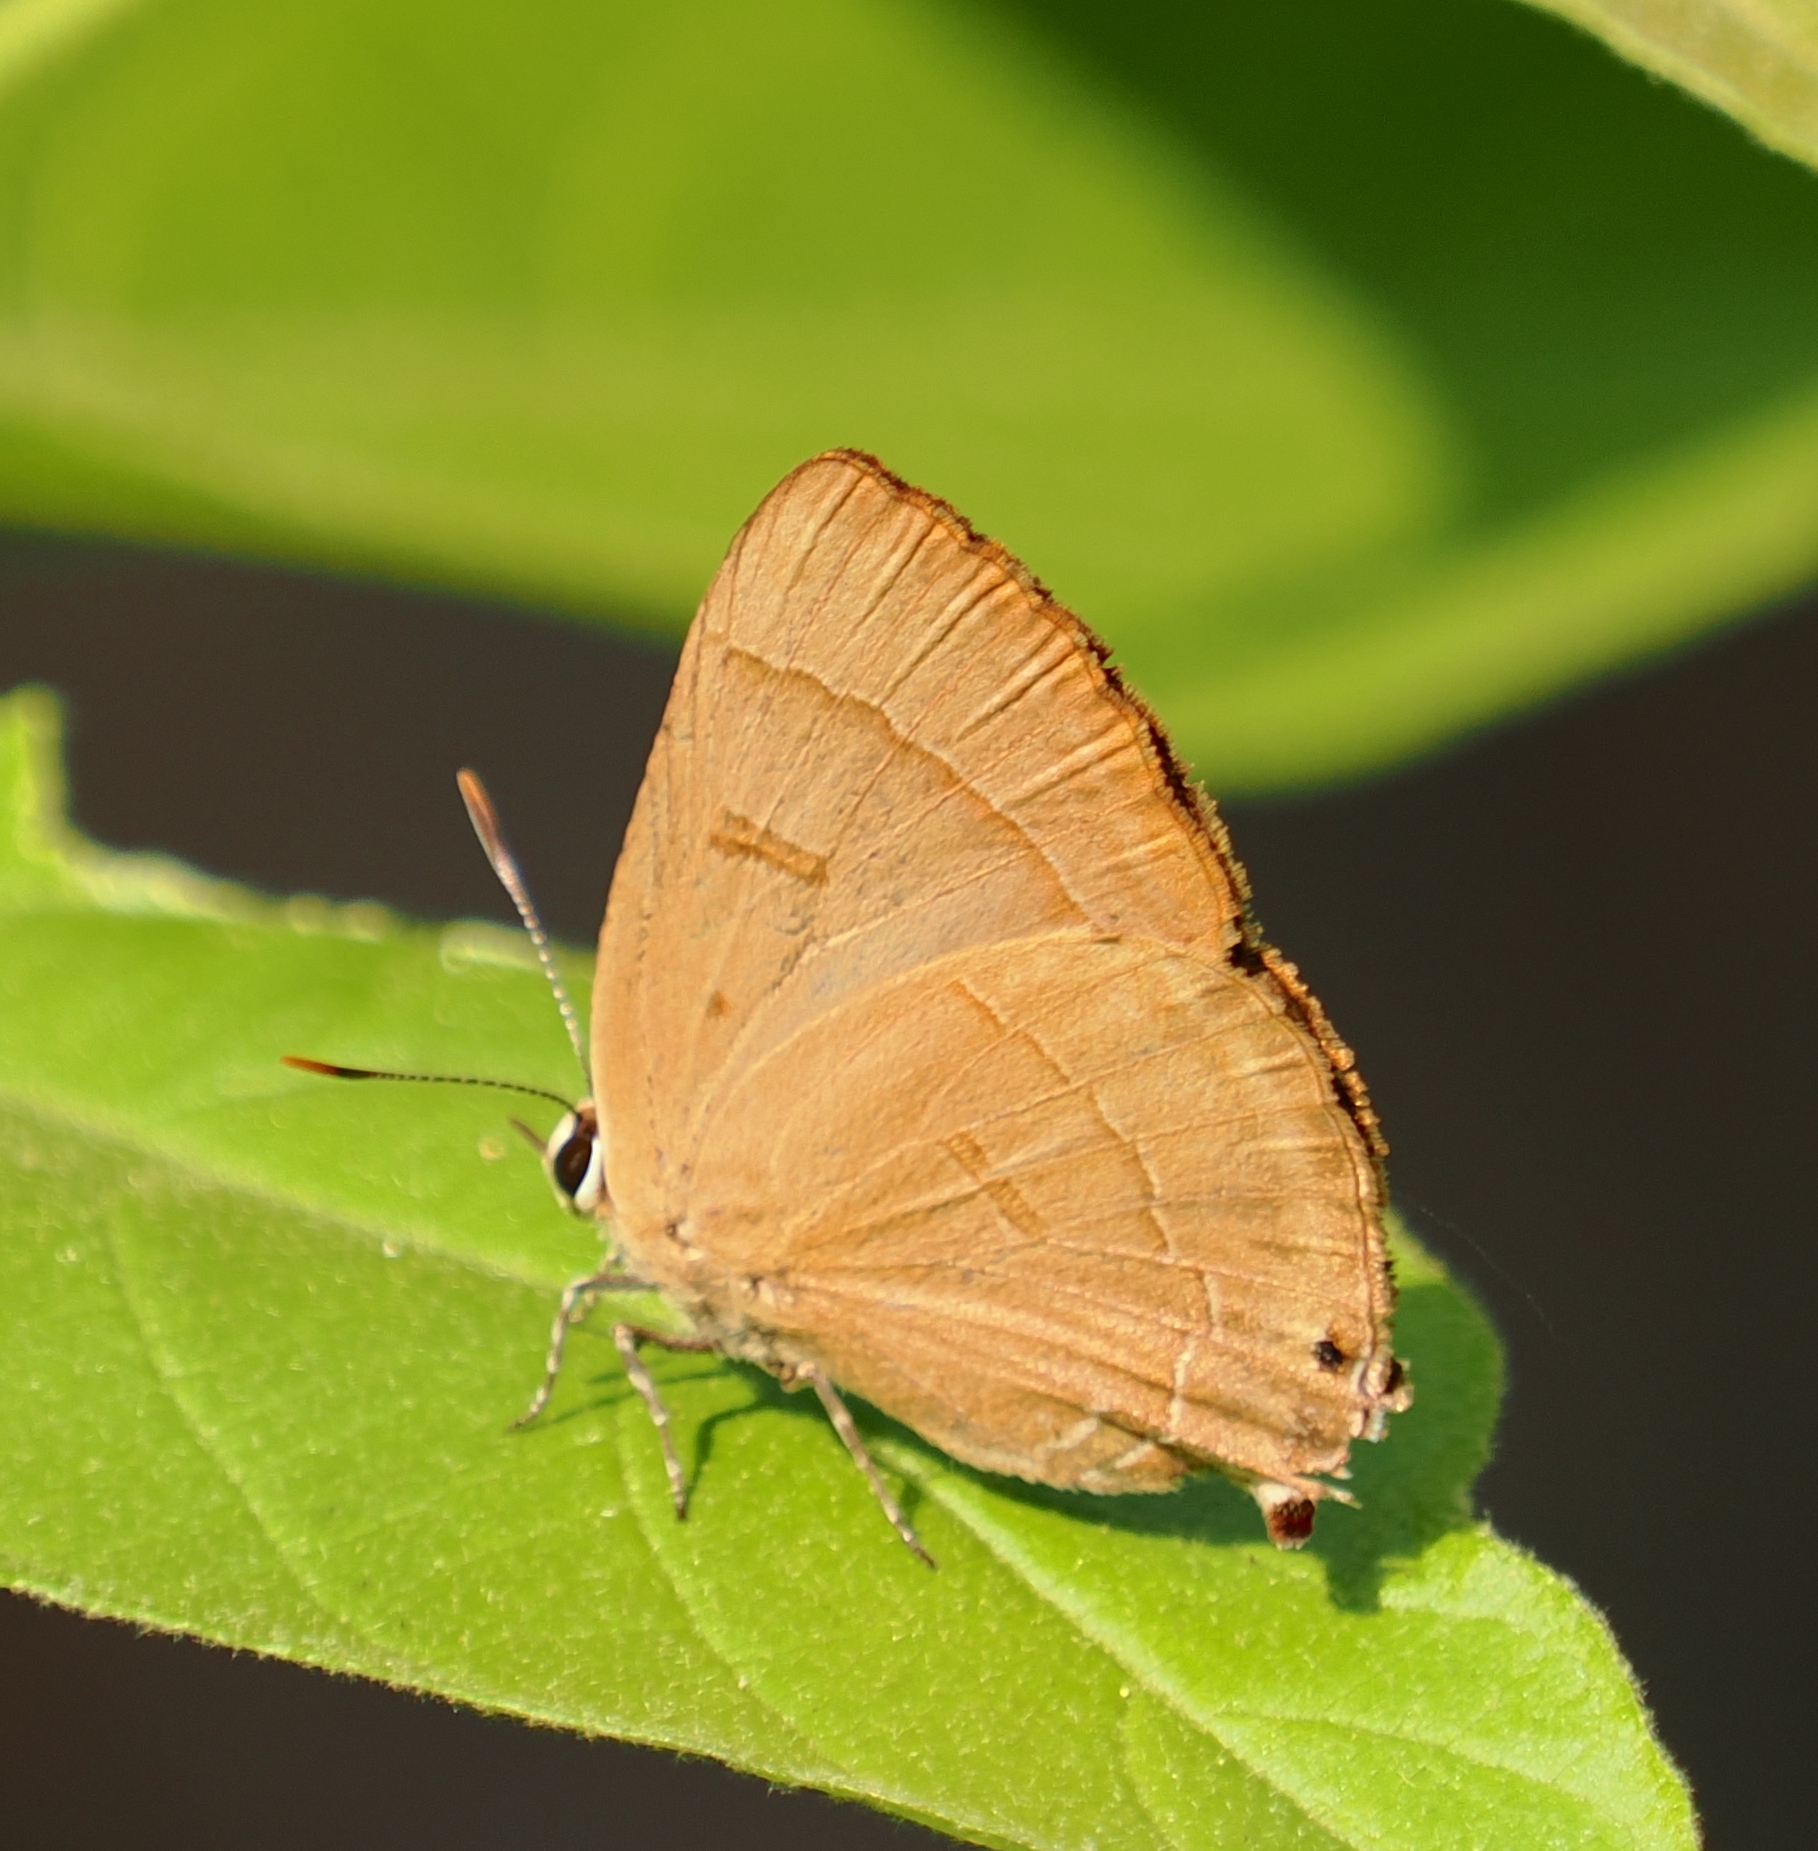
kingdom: Animalia
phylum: Arthropoda
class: Insecta
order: Lepidoptera
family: Lycaenidae
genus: Rapala
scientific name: Rapala pheretima
